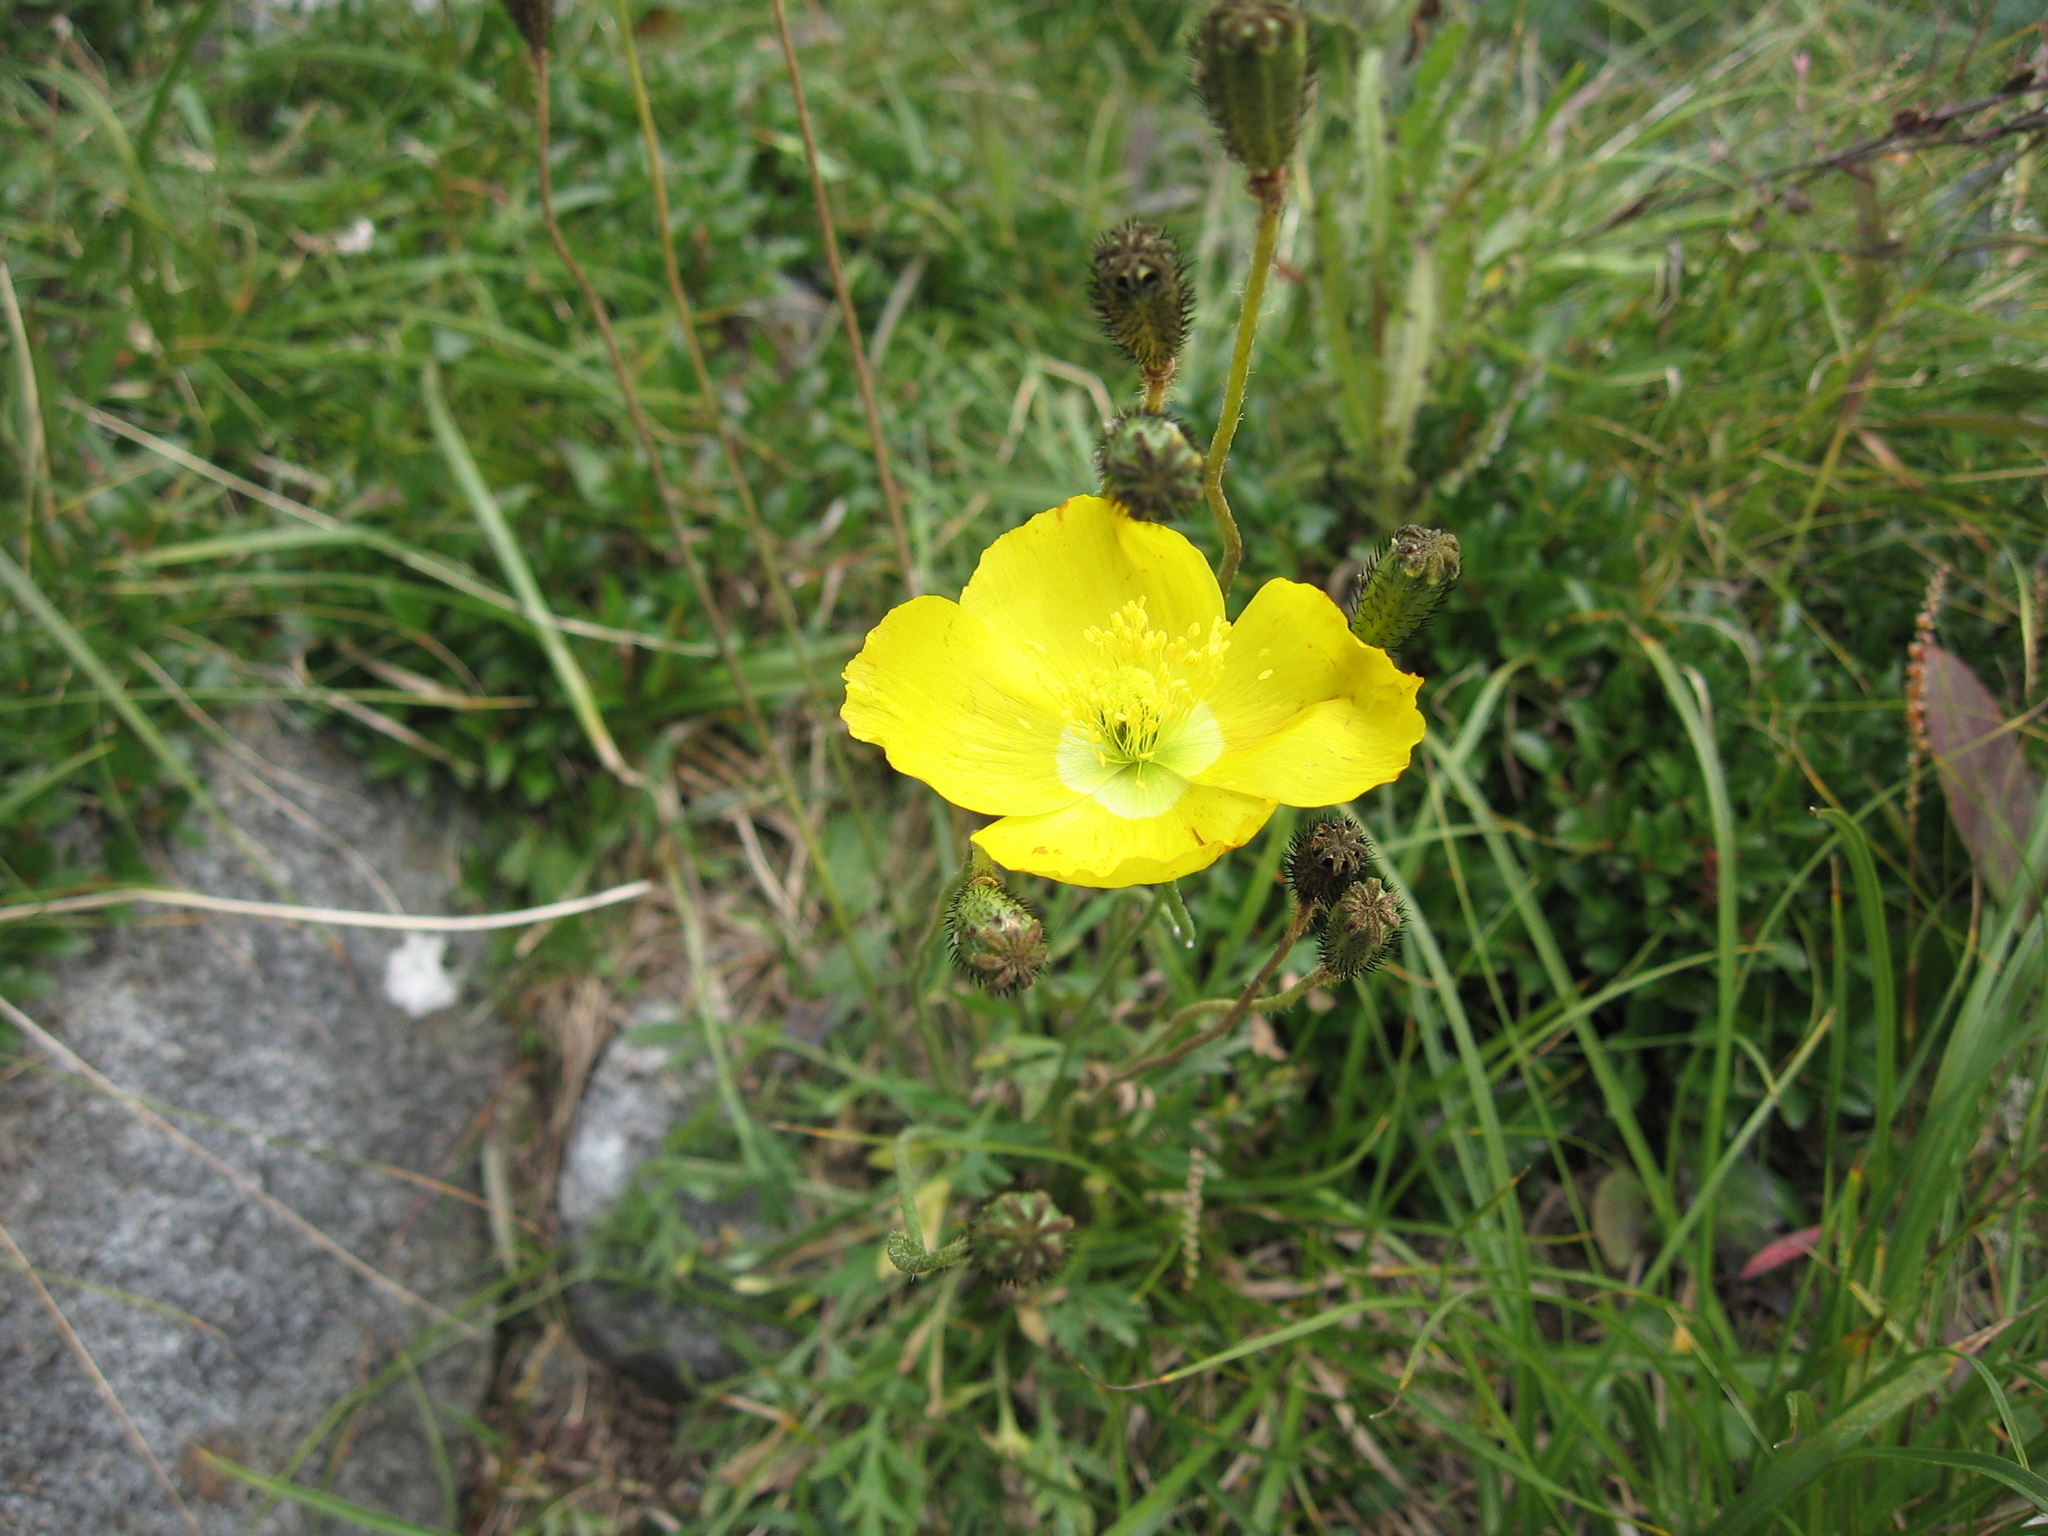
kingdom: Plantae
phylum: Tracheophyta
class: Magnoliopsida
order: Ranunculales
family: Papaveraceae
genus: Papaver
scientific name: Papaver leiocarpum
